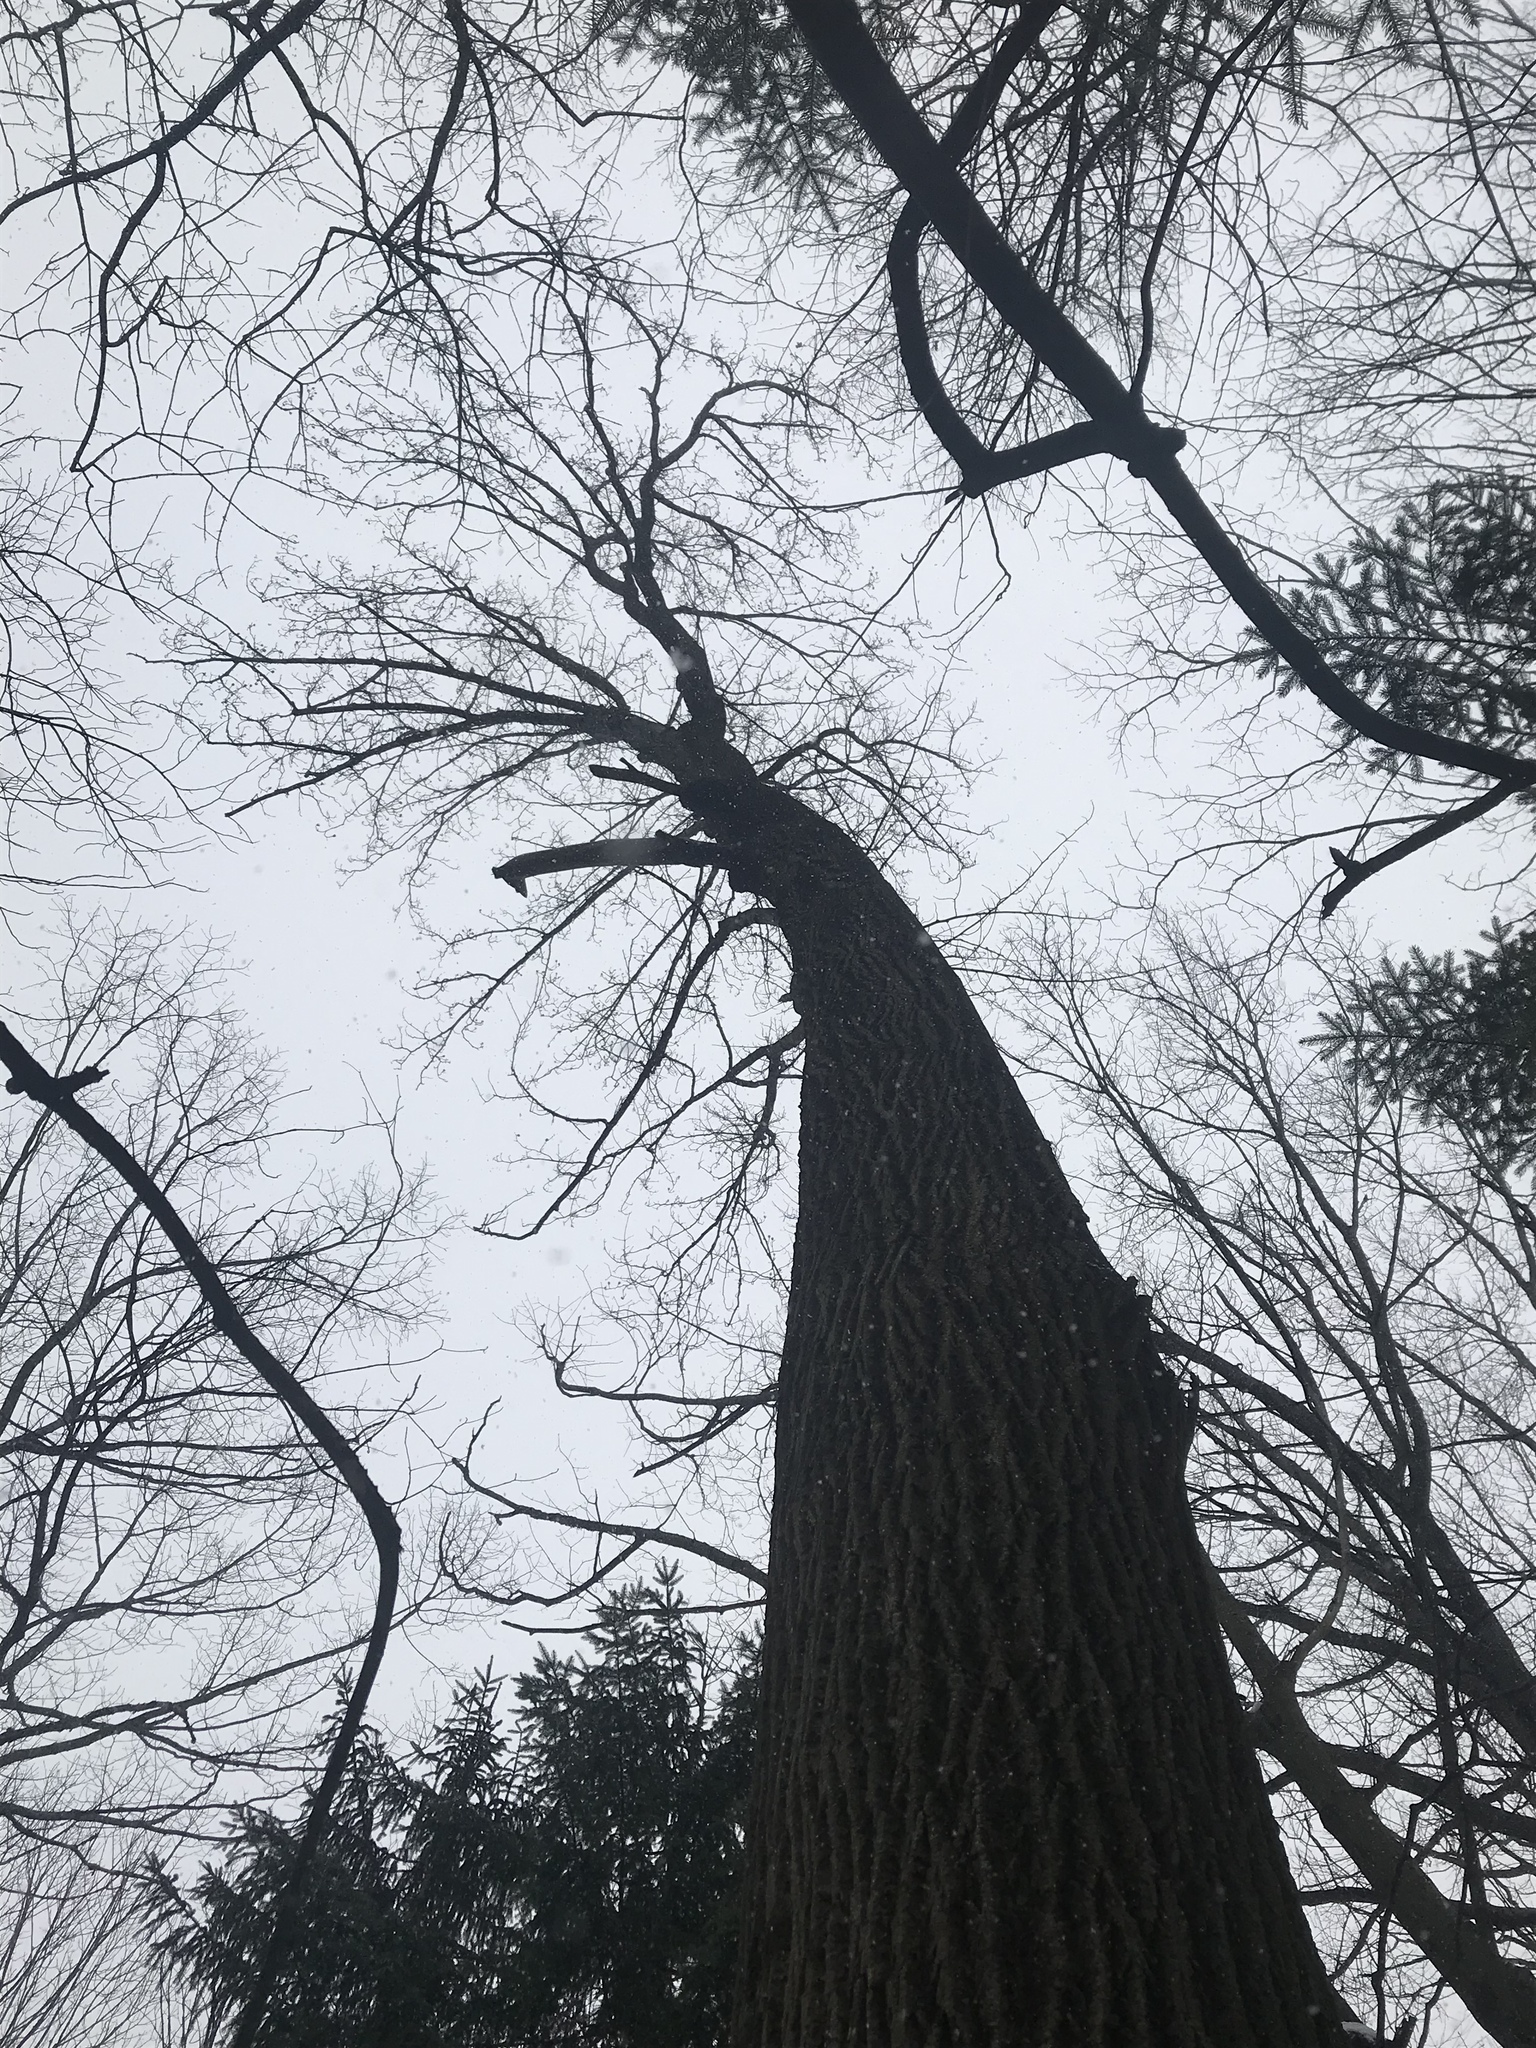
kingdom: Plantae
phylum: Tracheophyta
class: Magnoliopsida
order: Magnoliales
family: Magnoliaceae
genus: Liriodendron
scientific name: Liriodendron tulipifera
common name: Tulip tree
